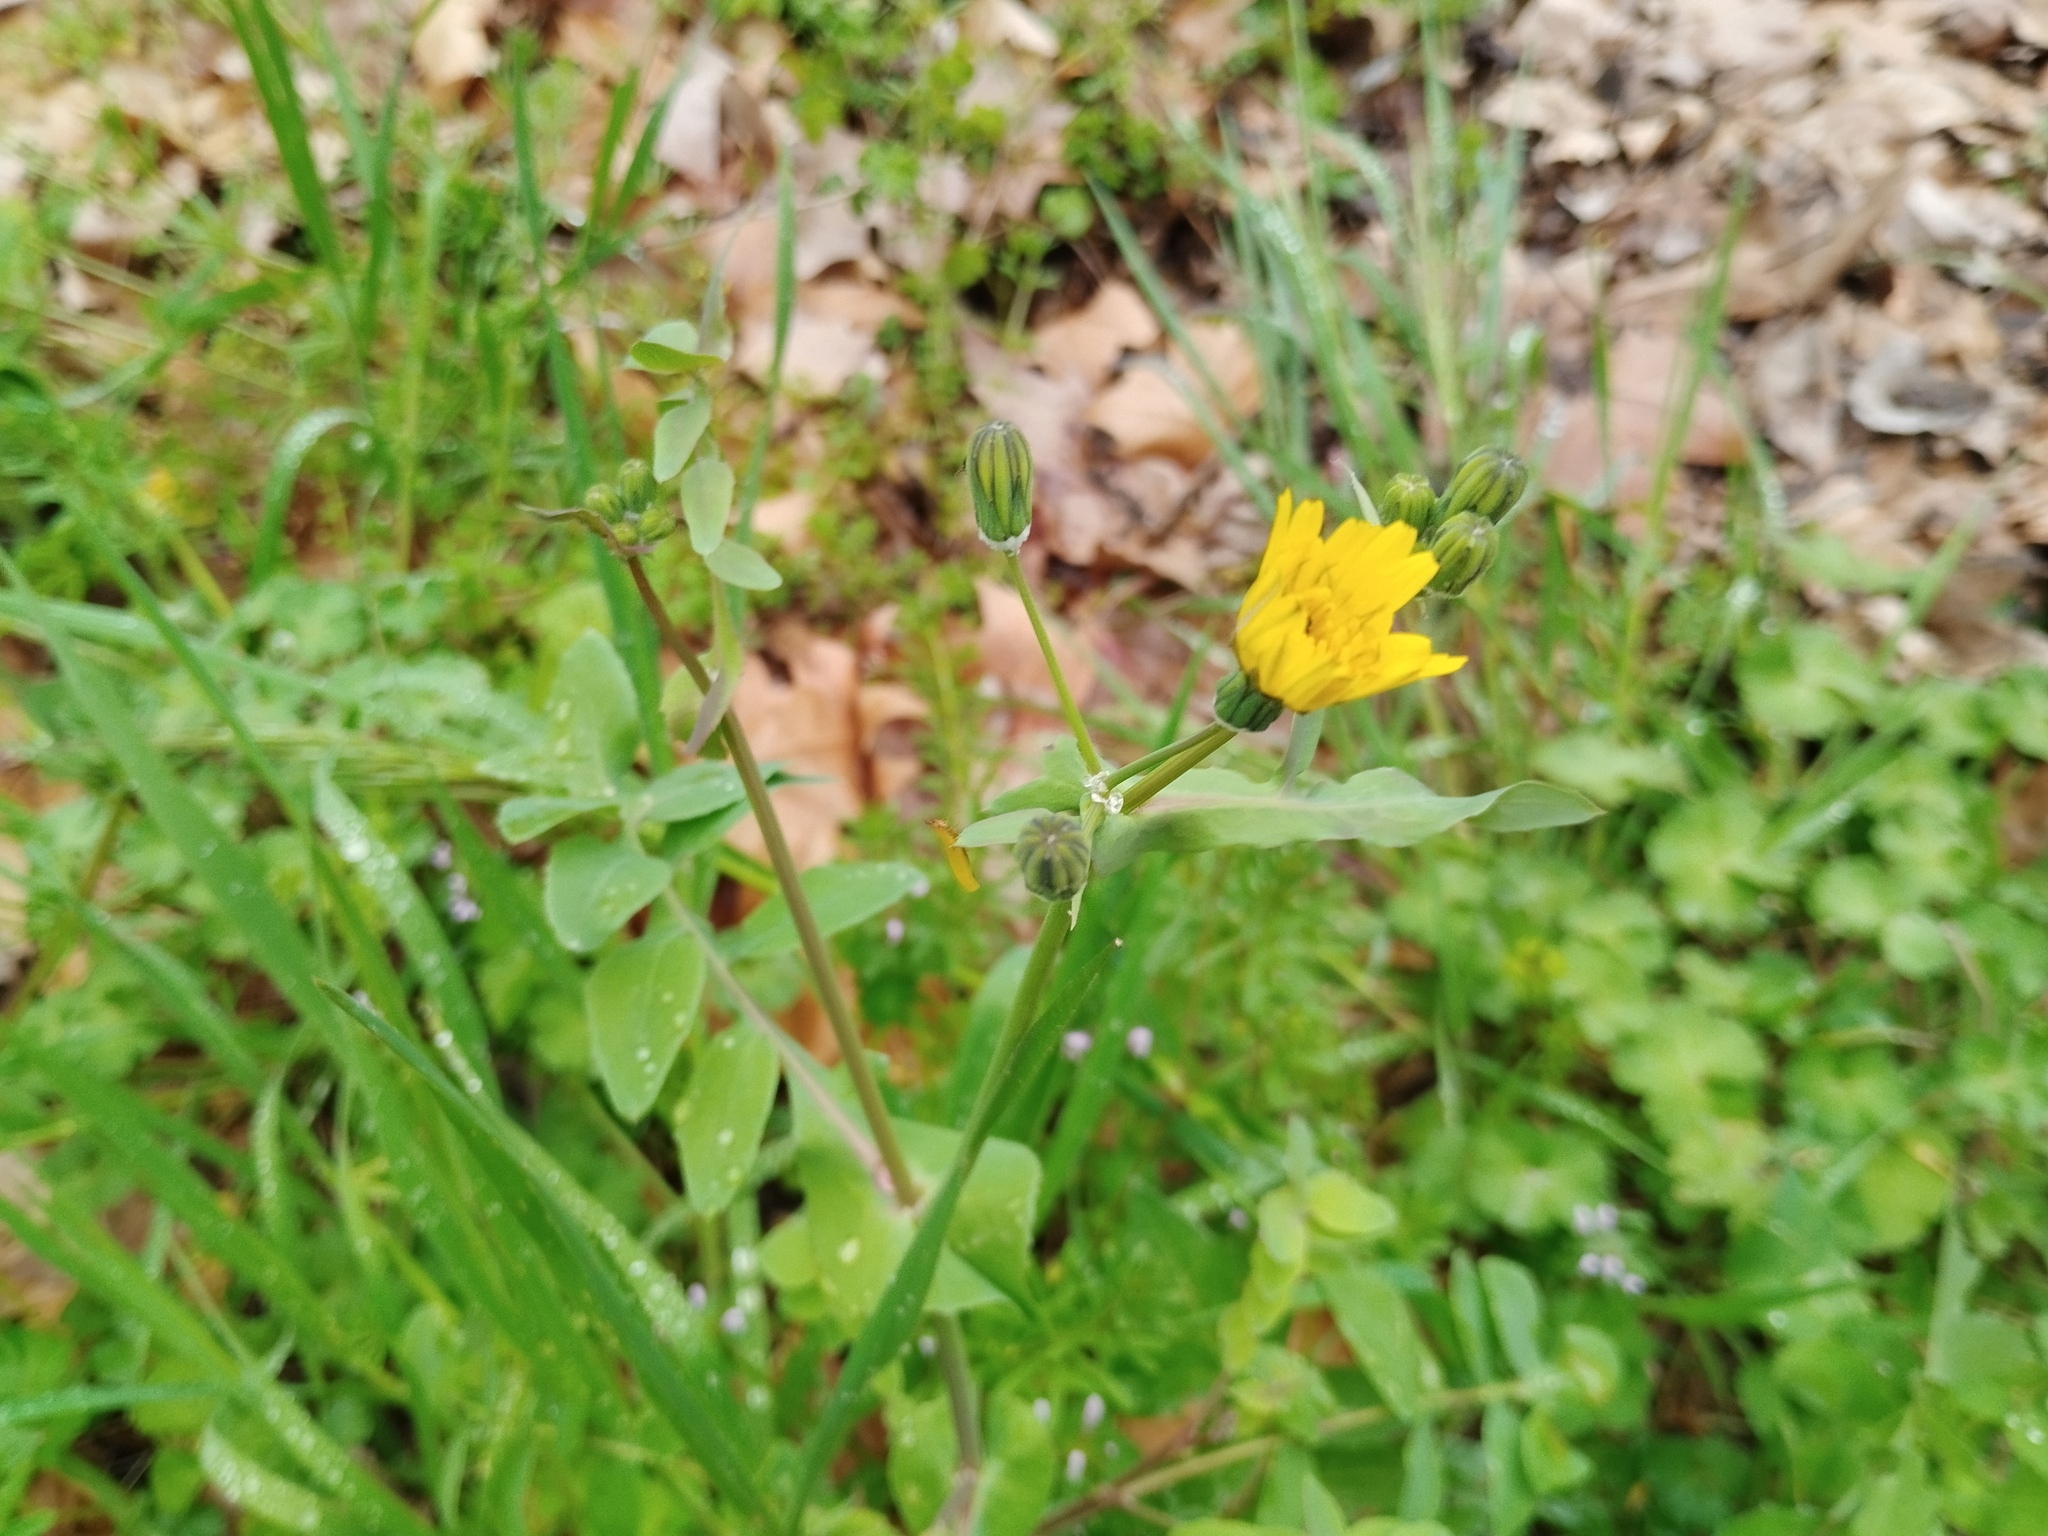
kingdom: Plantae
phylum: Tracheophyta
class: Magnoliopsida
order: Asterales
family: Asteraceae
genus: Sonchus
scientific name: Sonchus tenerrimus
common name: Clammy sowthistle
